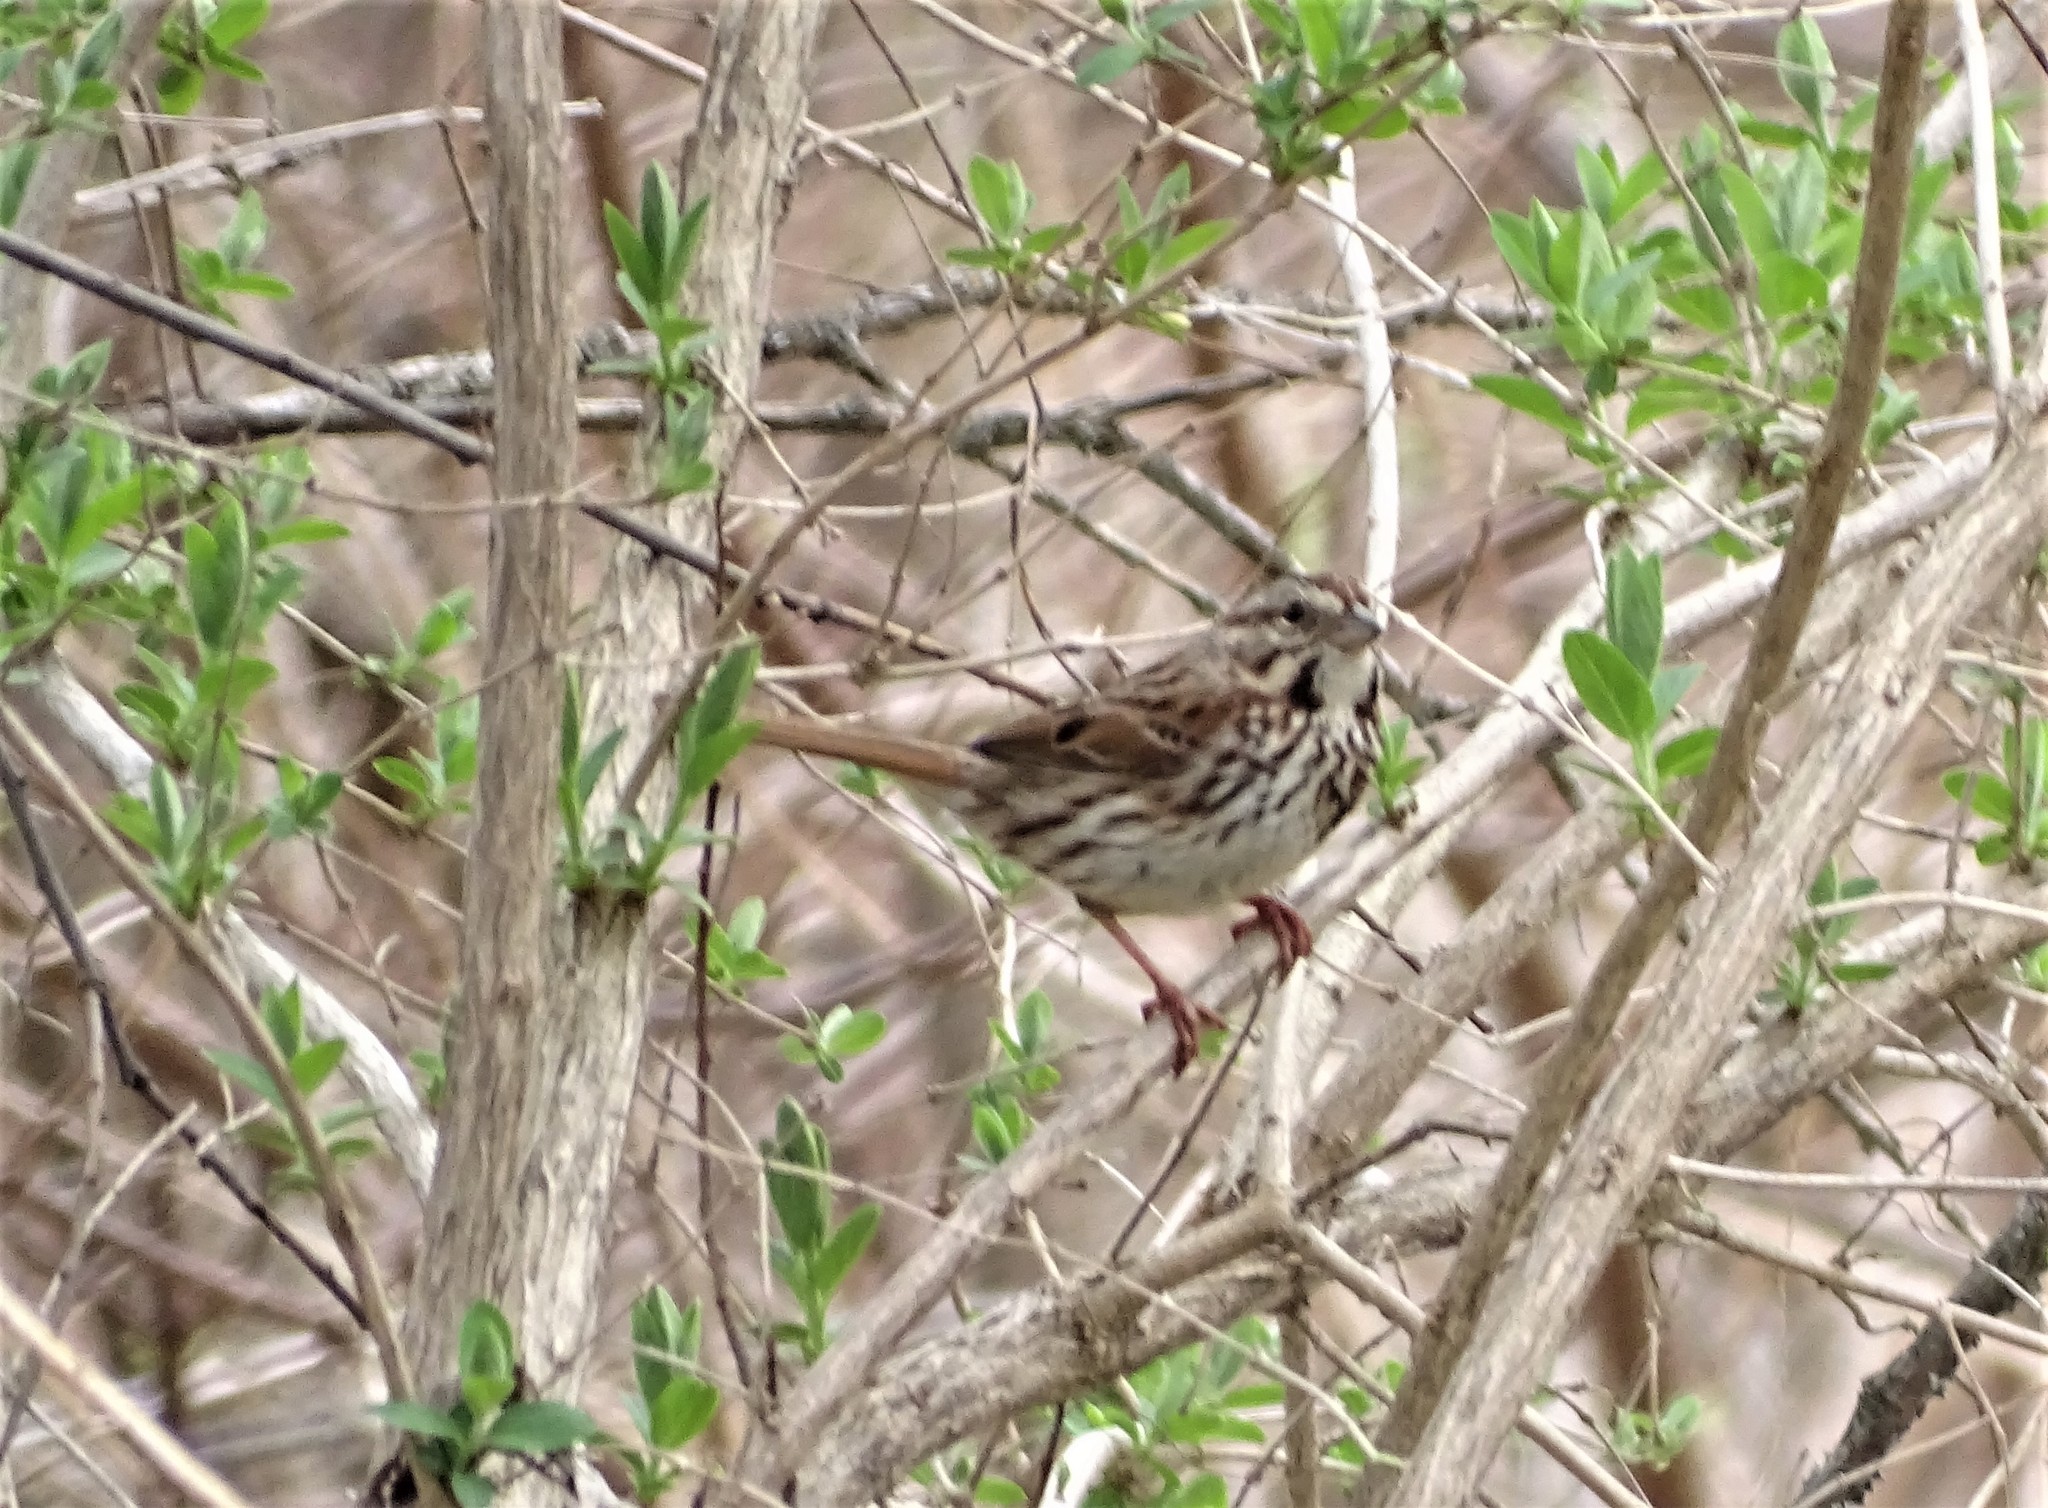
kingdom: Animalia
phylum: Chordata
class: Aves
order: Passeriformes
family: Passerellidae
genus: Melospiza
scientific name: Melospiza melodia
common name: Song sparrow
